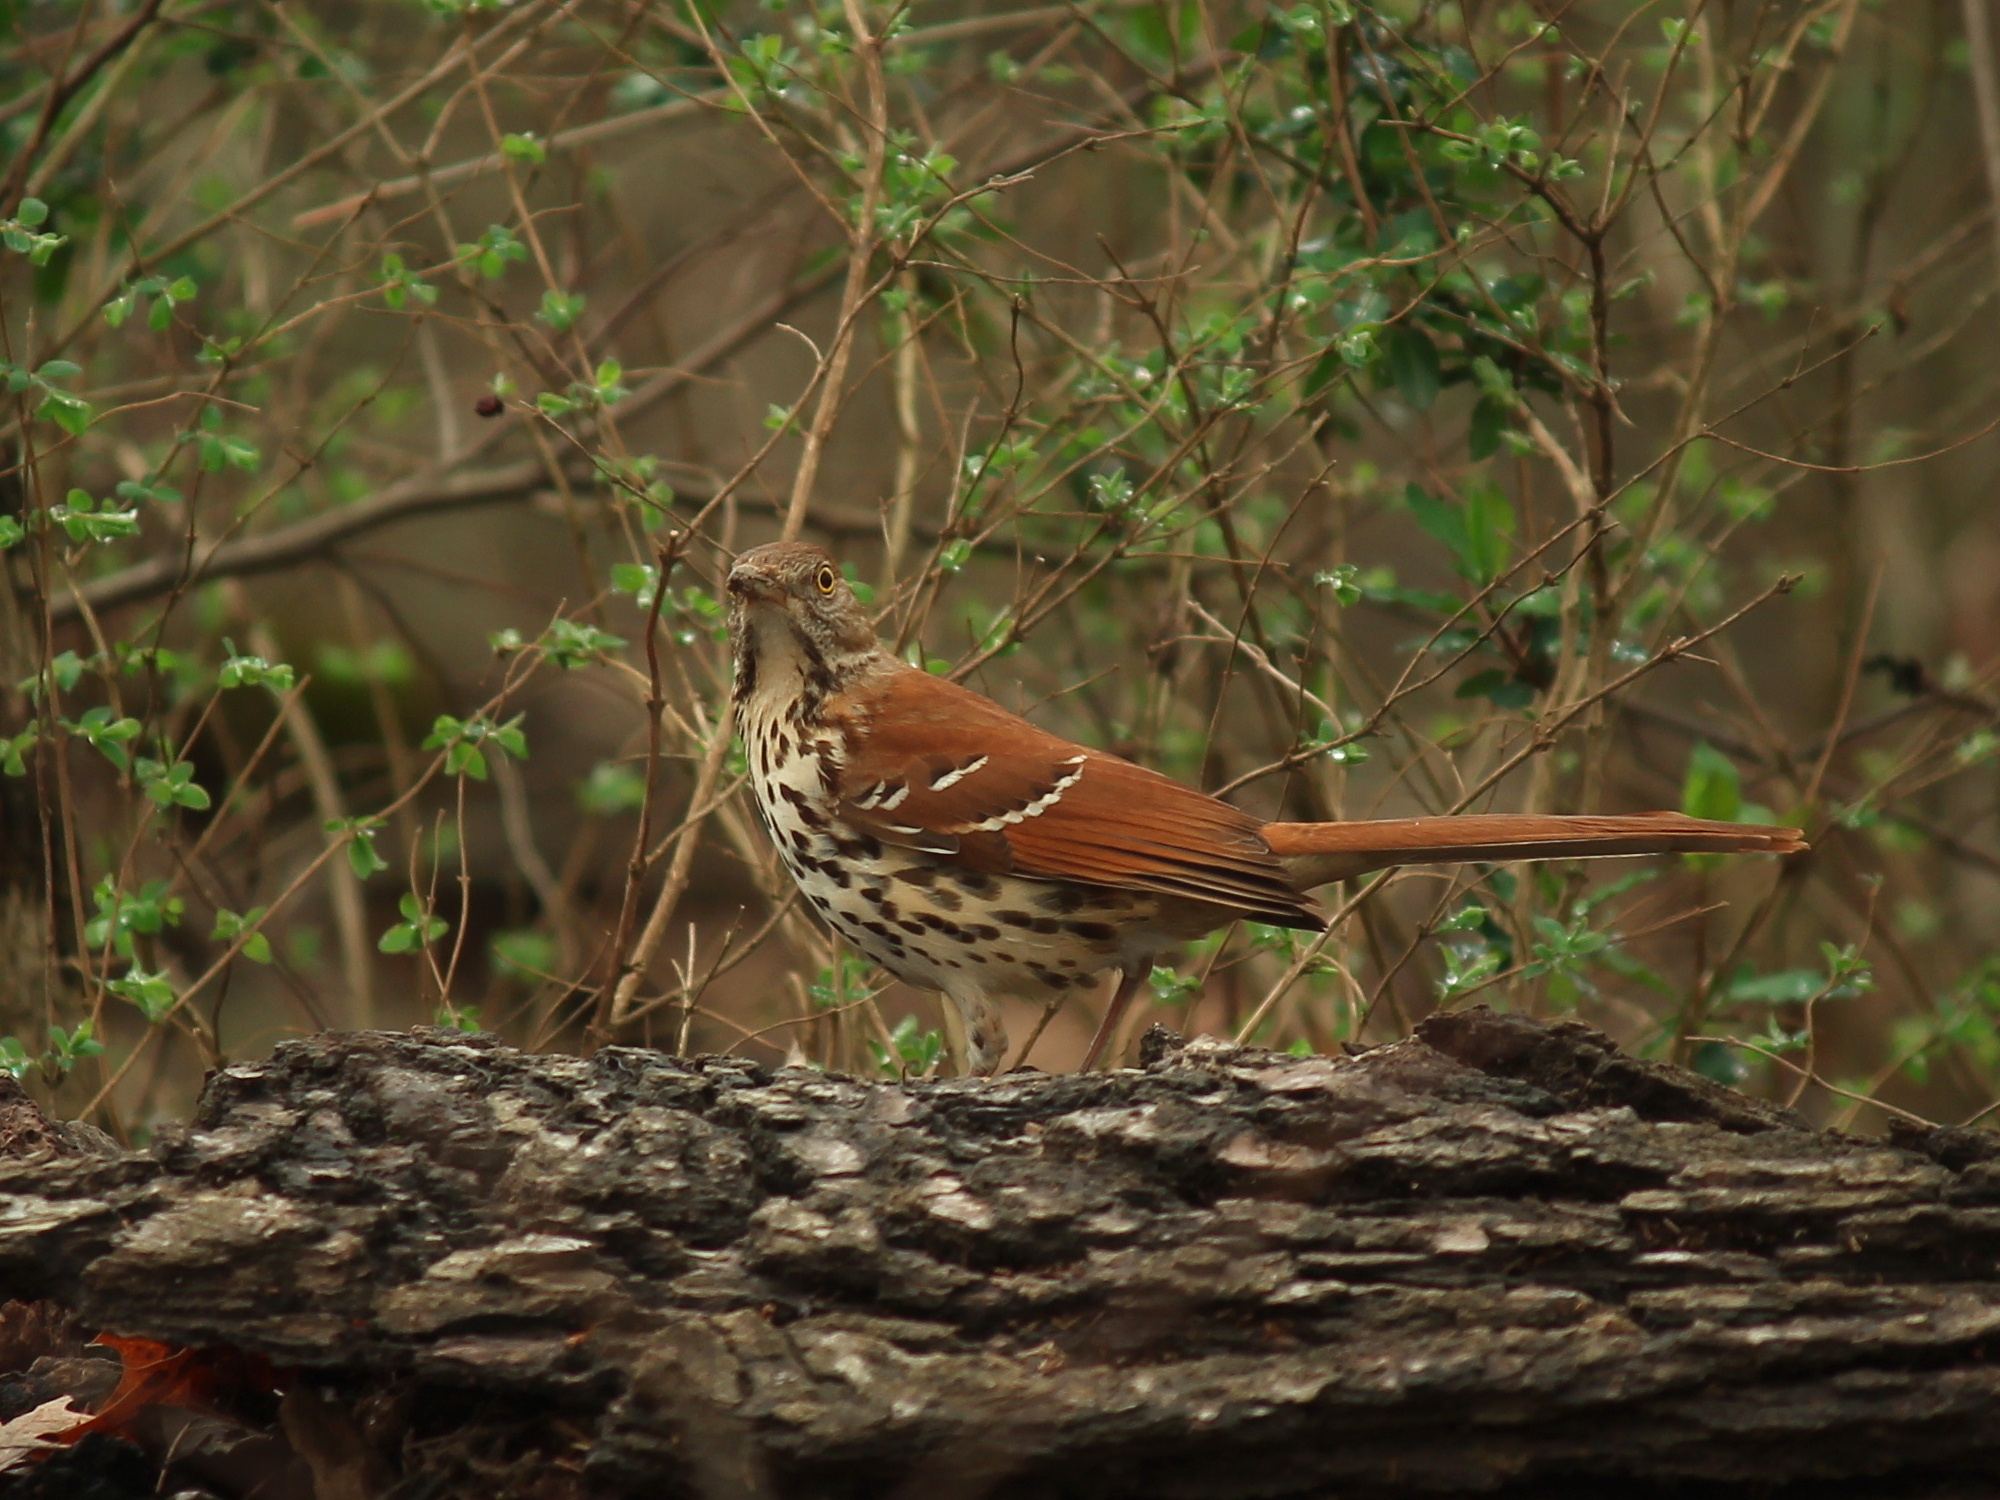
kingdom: Animalia
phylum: Chordata
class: Aves
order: Passeriformes
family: Mimidae
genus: Toxostoma
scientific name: Toxostoma rufum
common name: Brown thrasher
